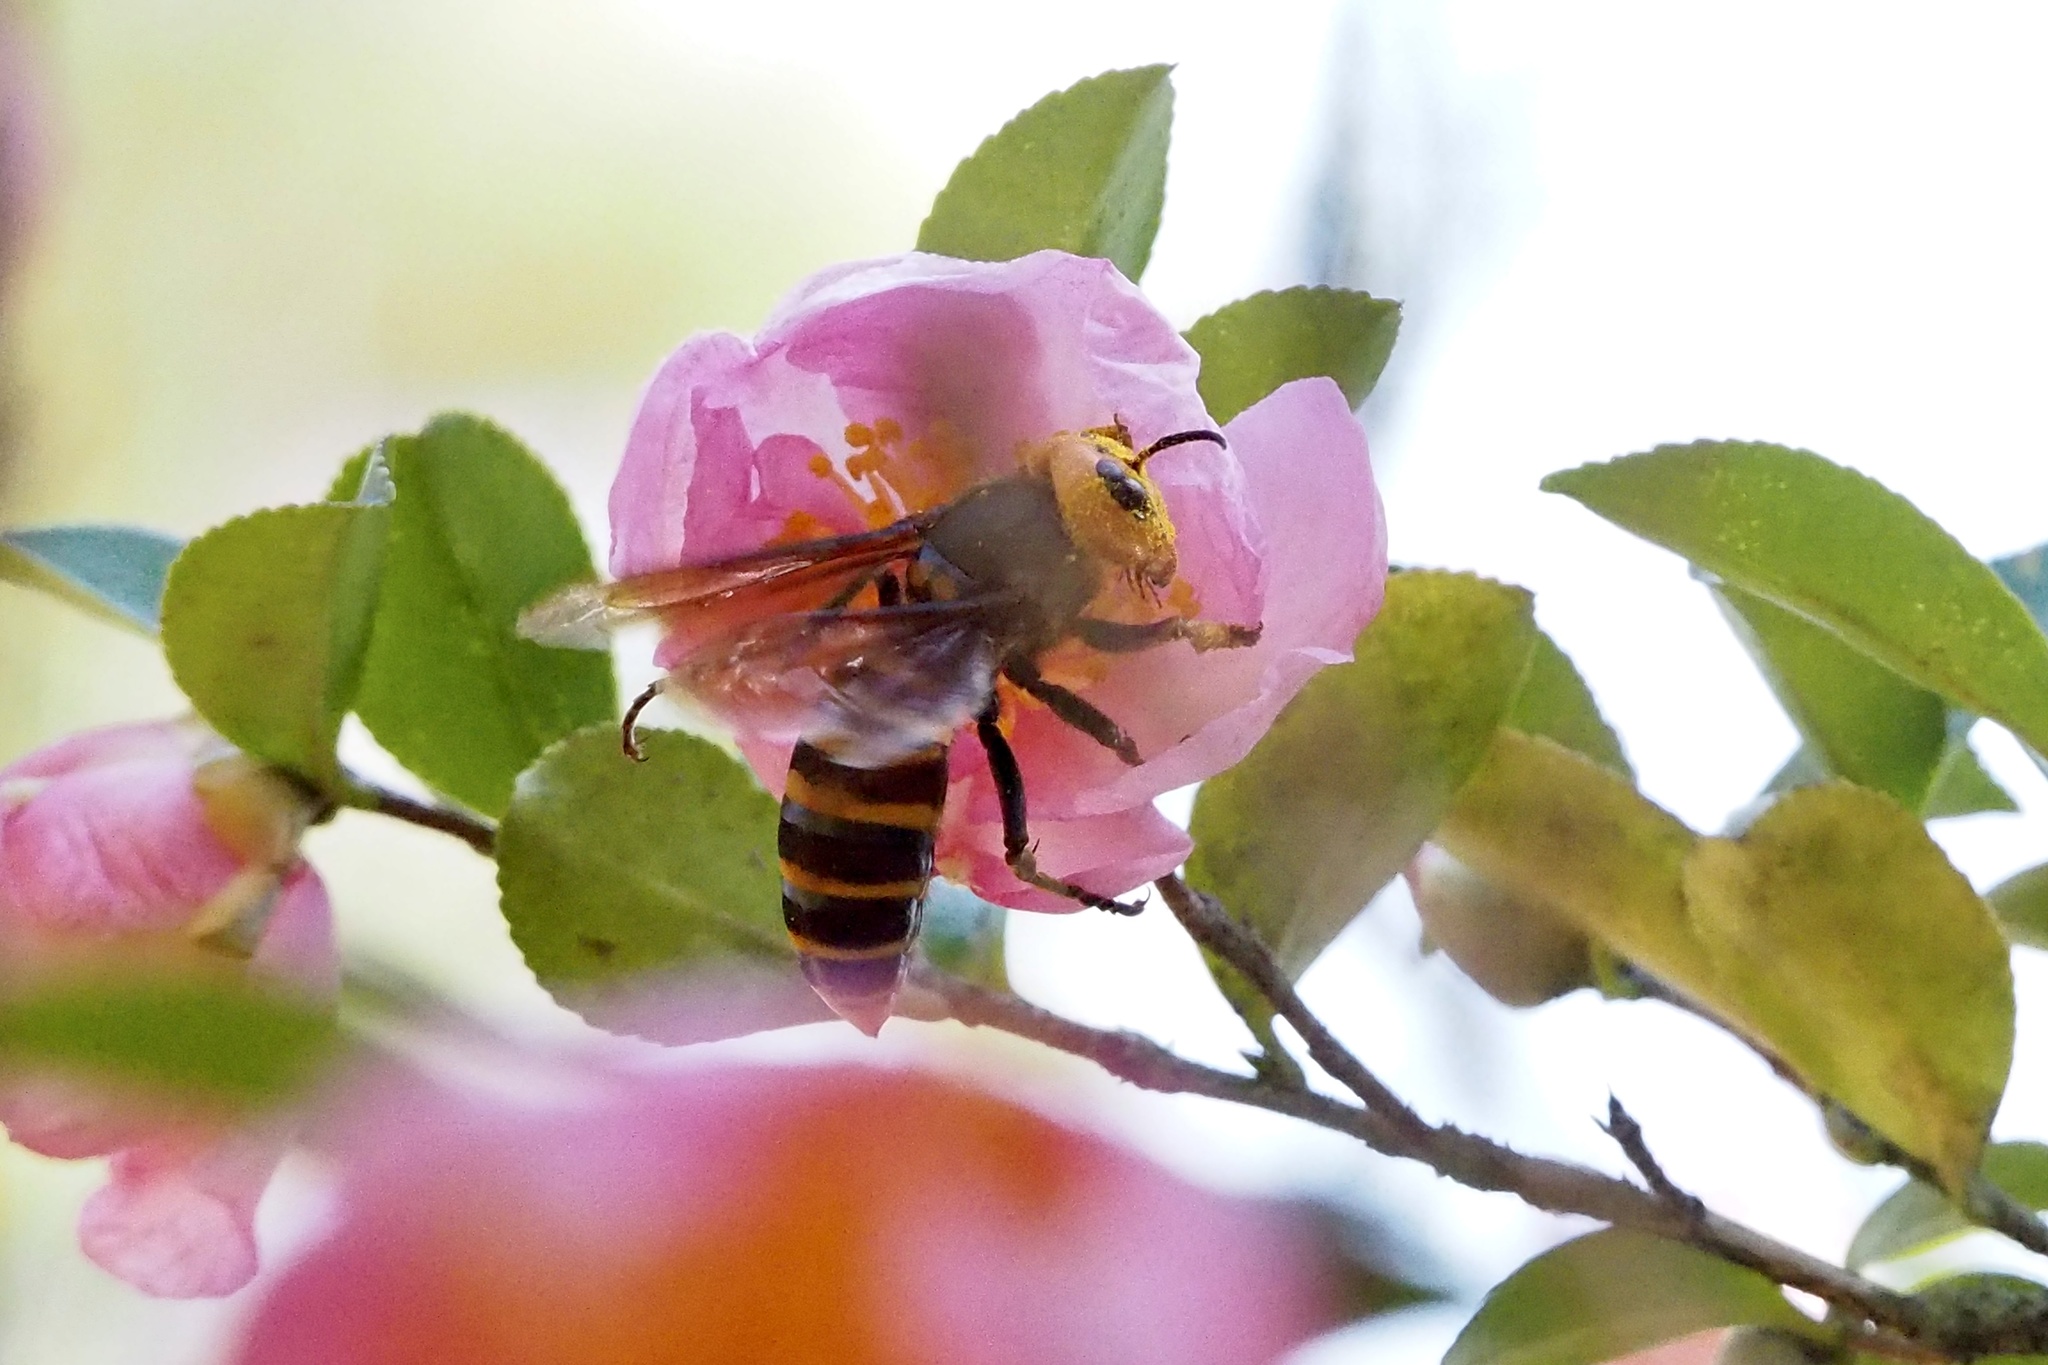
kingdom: Animalia
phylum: Arthropoda
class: Insecta
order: Hymenoptera
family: Vespidae
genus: Vespa
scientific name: Vespa mandarinia
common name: Asian giant hornet
